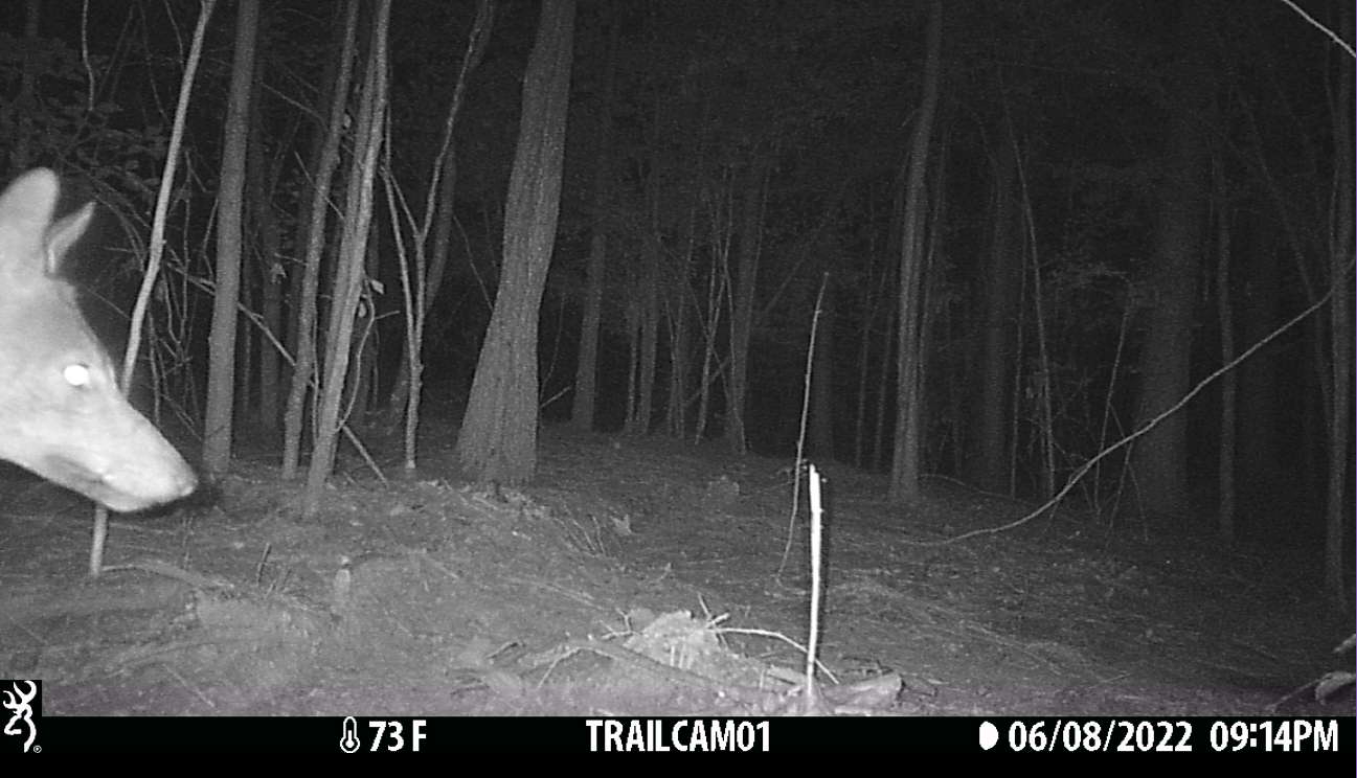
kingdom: Animalia
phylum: Chordata
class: Mammalia
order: Carnivora
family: Canidae
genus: Canis
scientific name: Canis latrans
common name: Coyote
